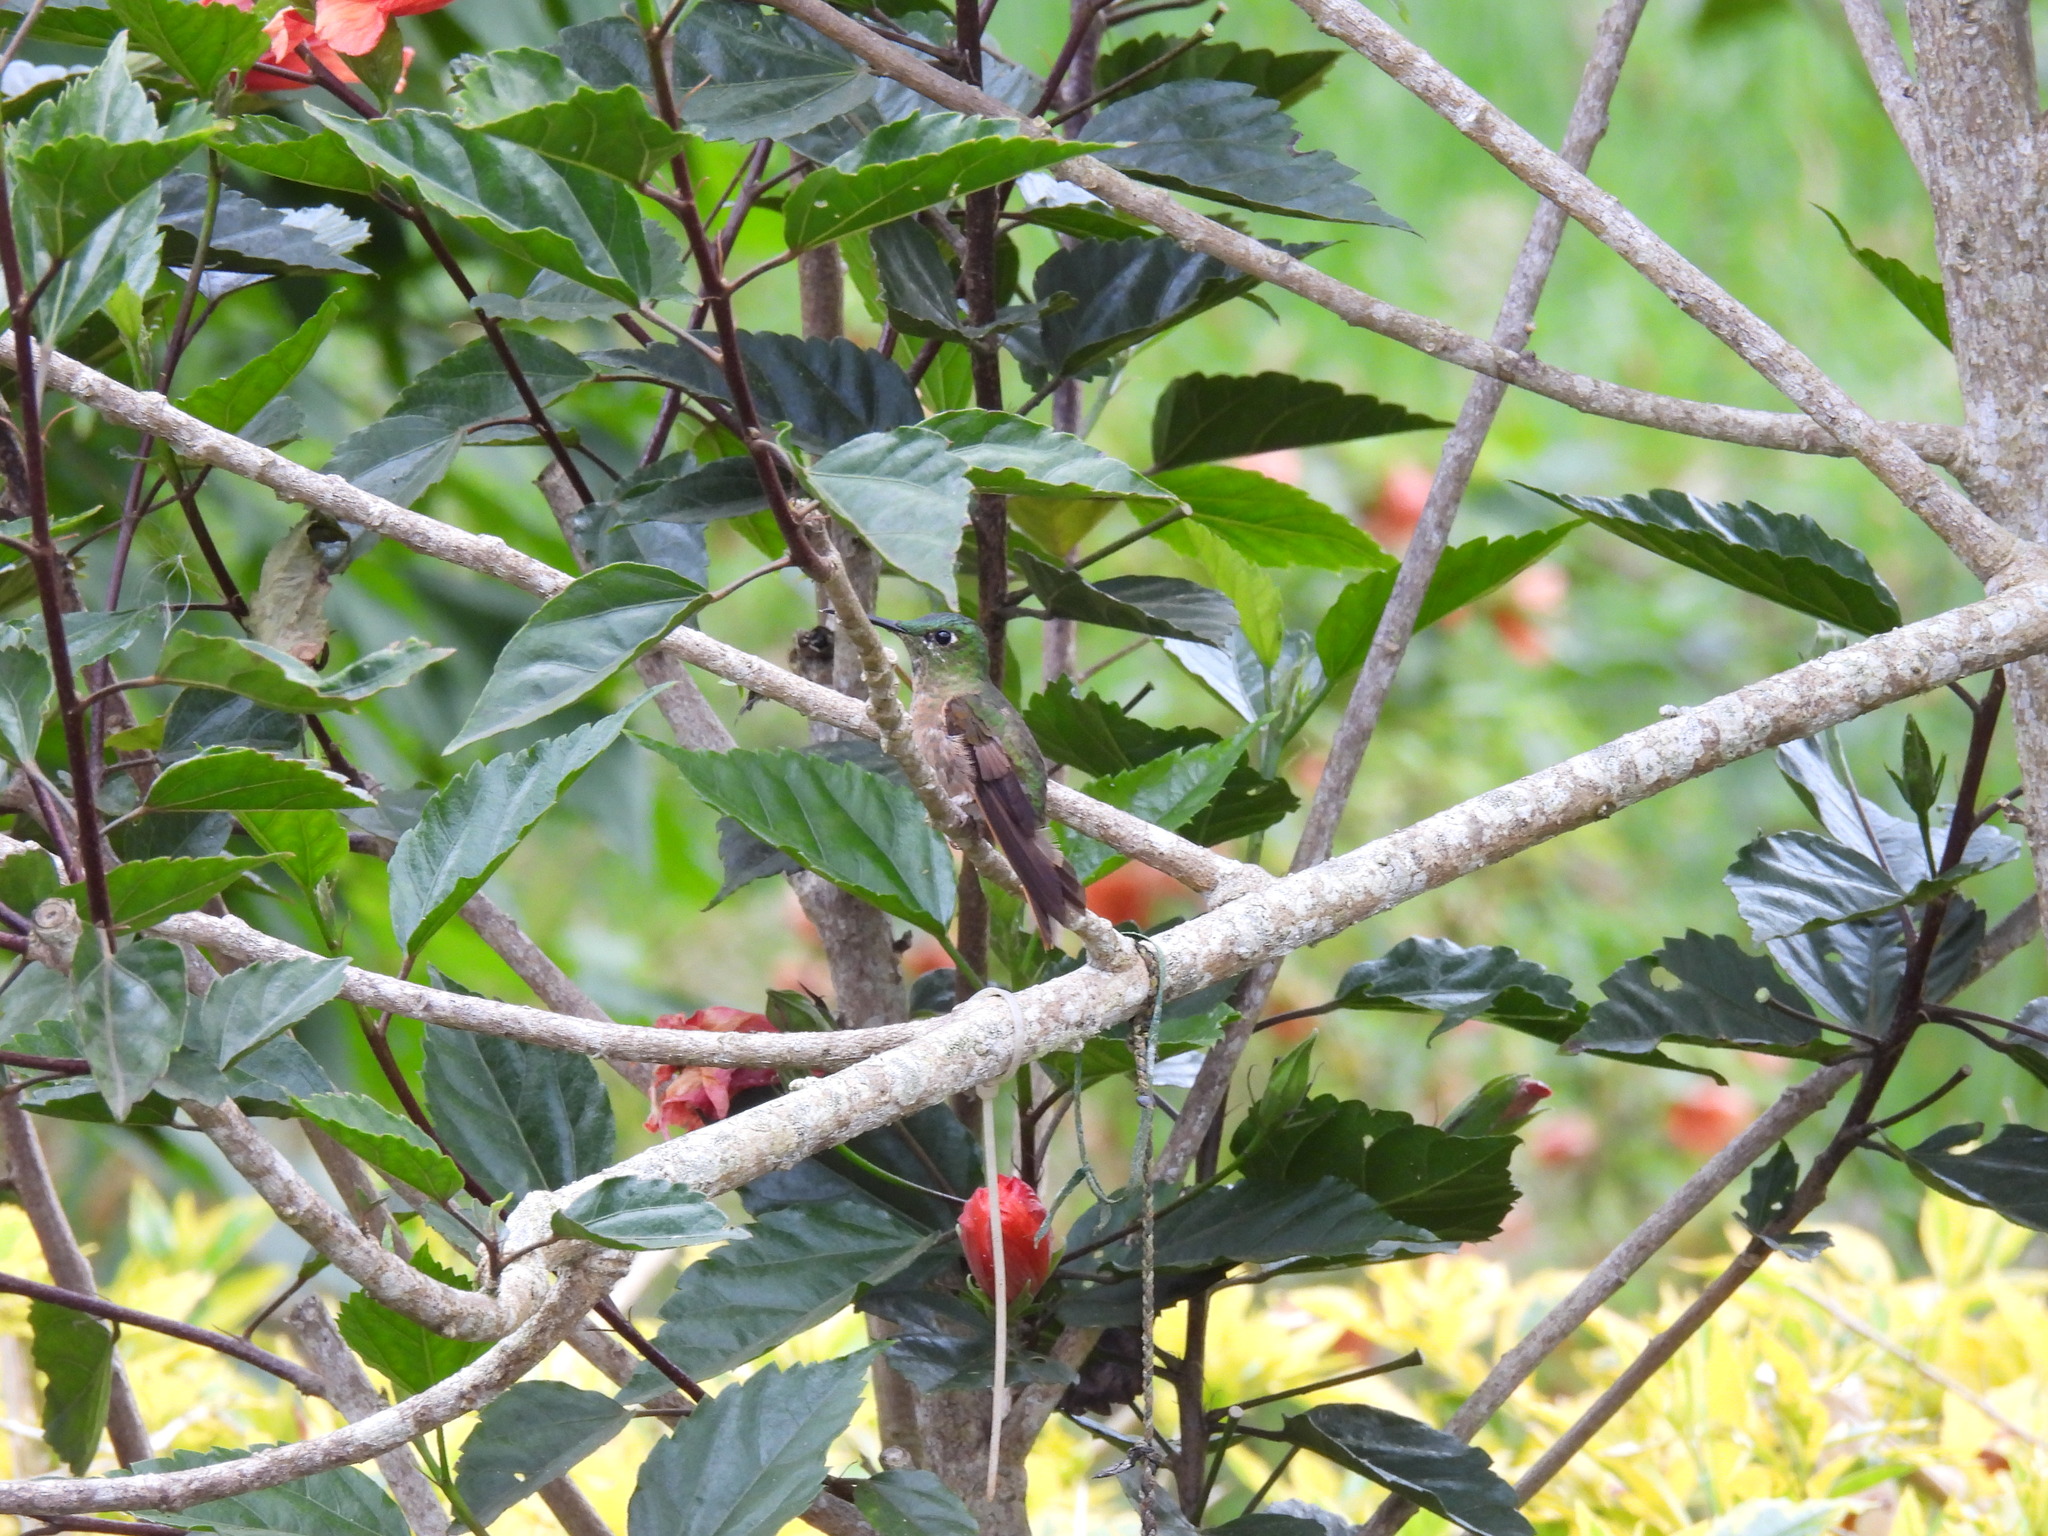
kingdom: Animalia
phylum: Chordata
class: Aves
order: Apodiformes
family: Trochilidae
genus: Heliodoxa
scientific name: Heliodoxa rubinoides
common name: Fawn-breasted brilliant
